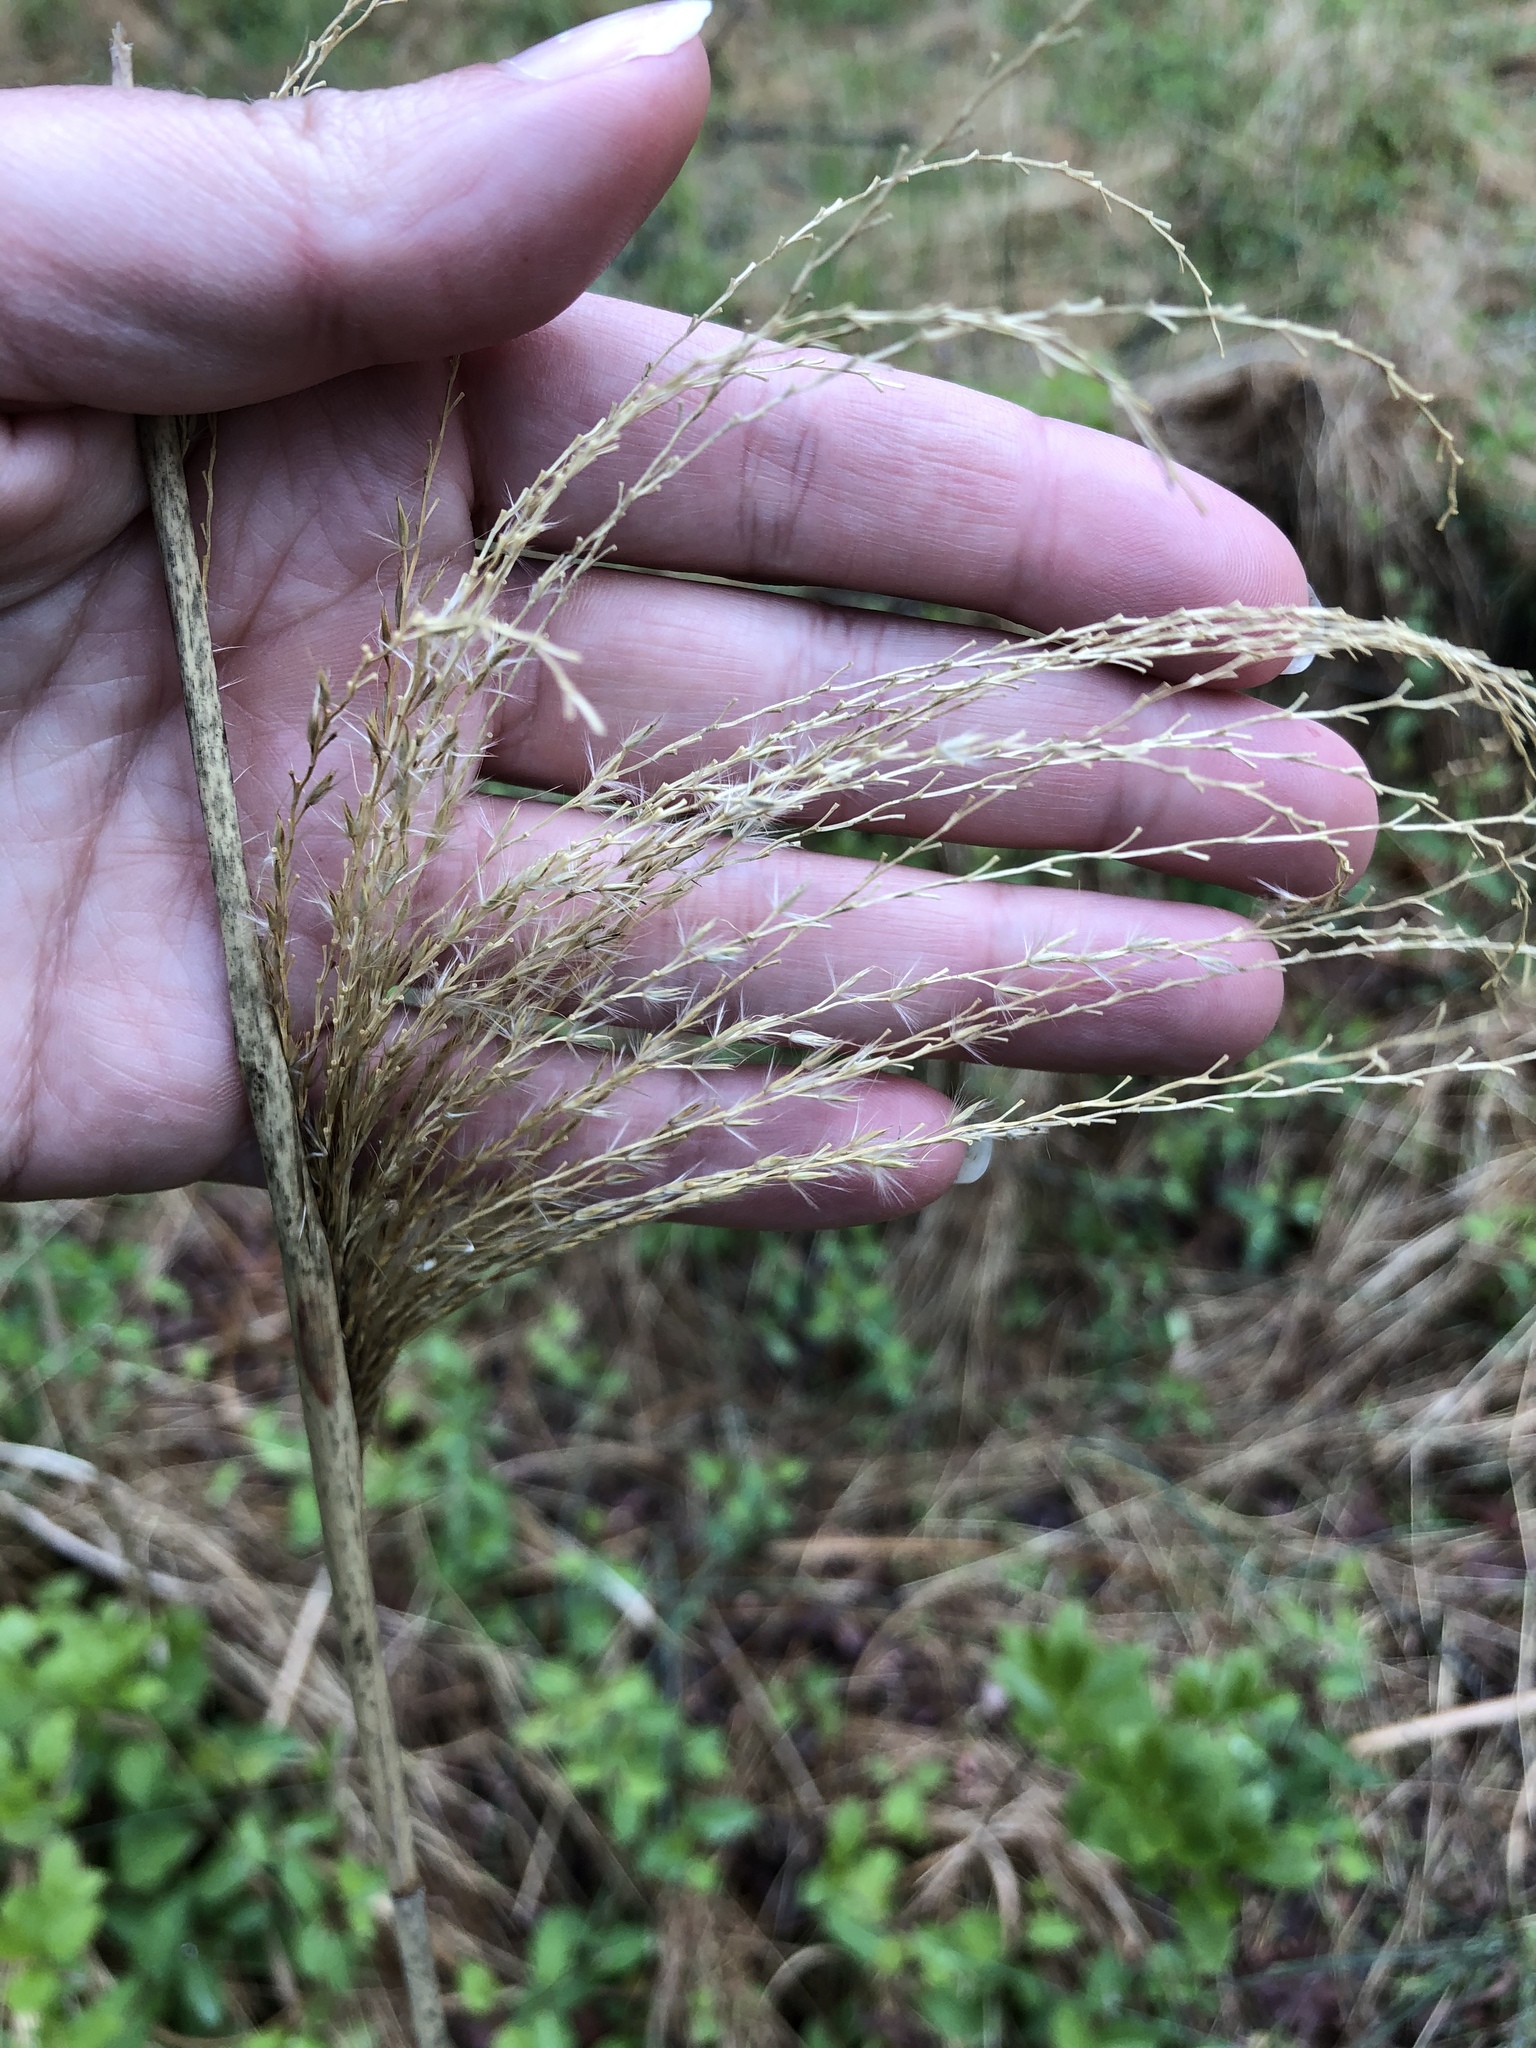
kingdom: Plantae
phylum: Tracheophyta
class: Liliopsida
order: Poales
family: Poaceae
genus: Miscanthus
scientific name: Miscanthus sinensis
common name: Chinese silvergrass
